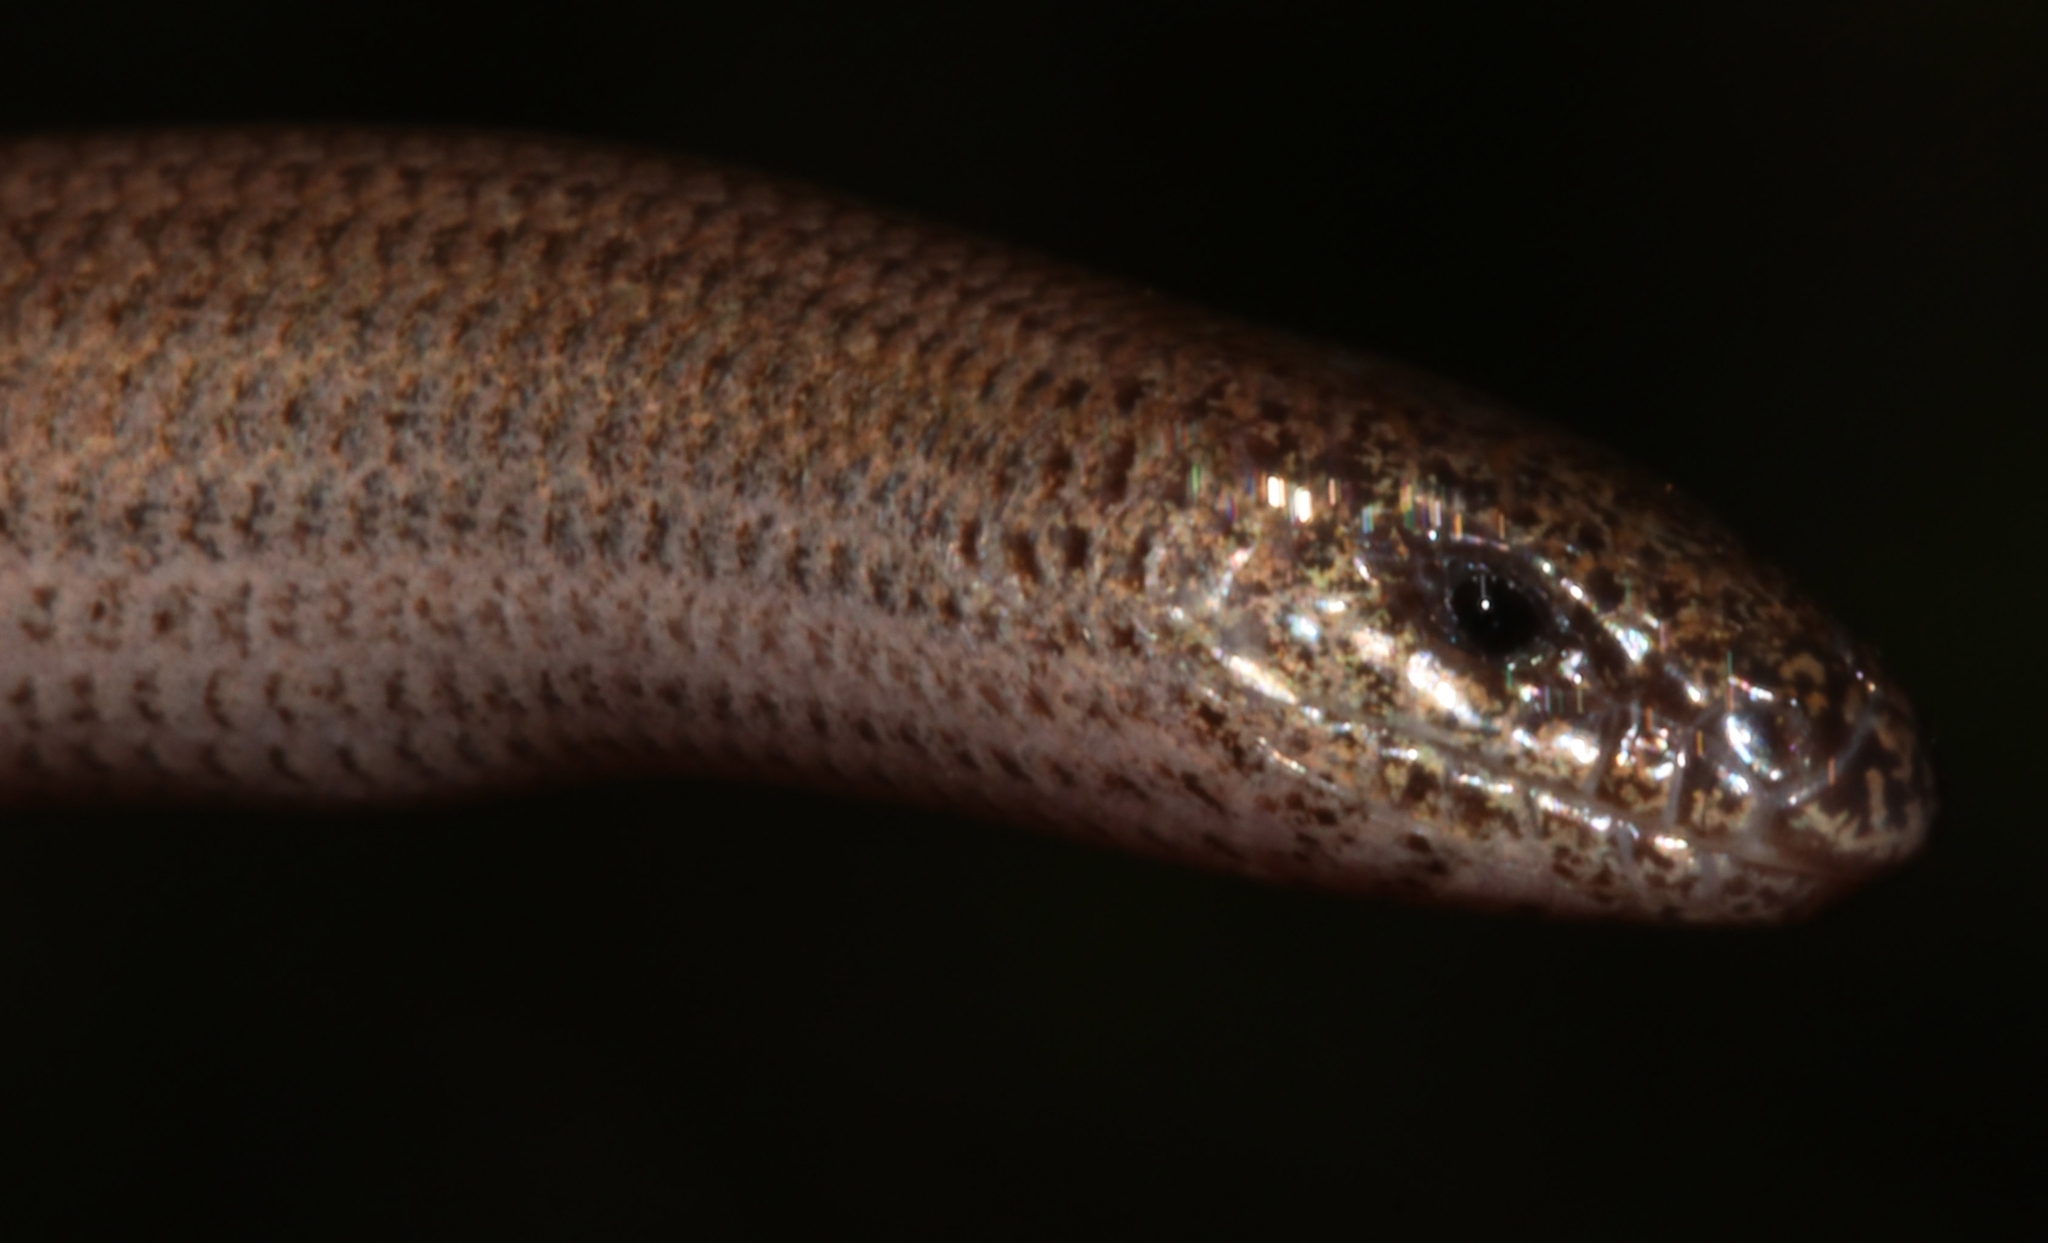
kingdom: Animalia
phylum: Chordata
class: Squamata
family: Scincidae
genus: Ophiomorus
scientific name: Ophiomorus punctatissimus
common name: Greek snake skink
